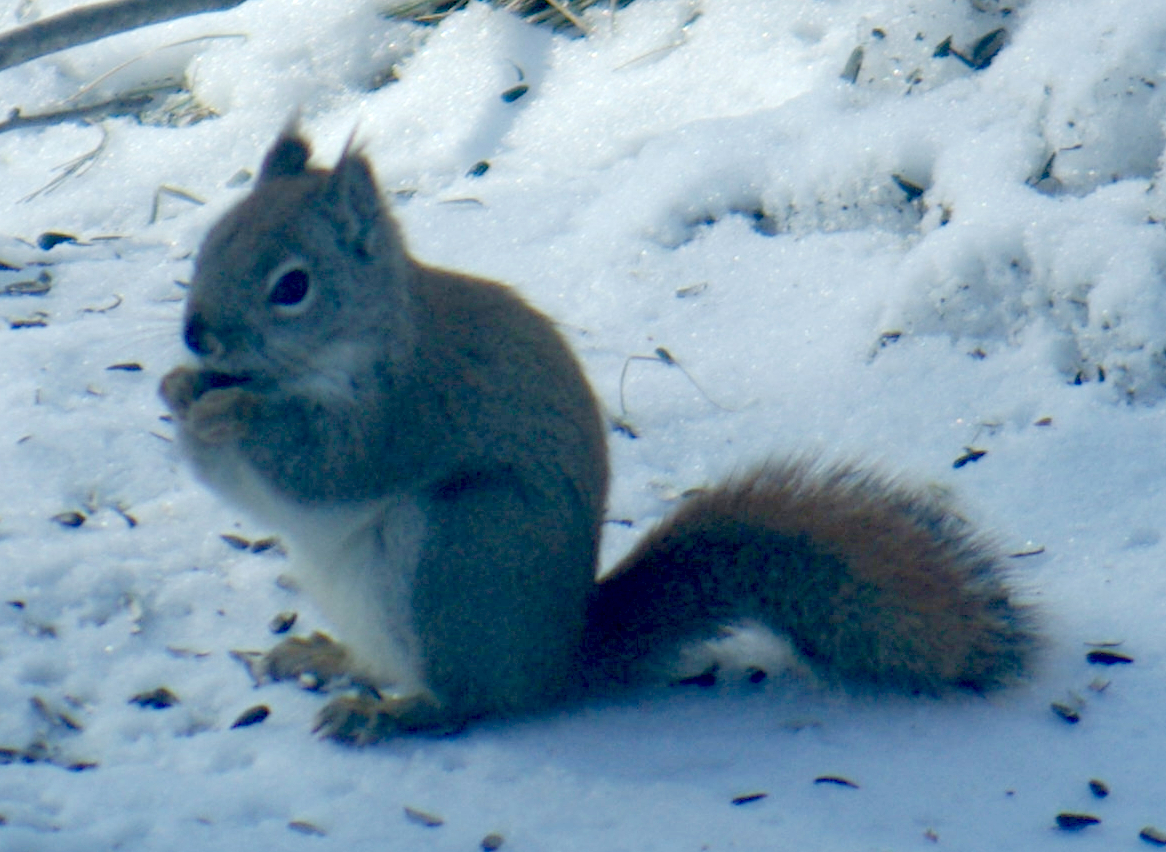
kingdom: Animalia
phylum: Chordata
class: Mammalia
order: Rodentia
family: Sciuridae
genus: Tamiasciurus
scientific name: Tamiasciurus hudsonicus
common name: Red squirrel
